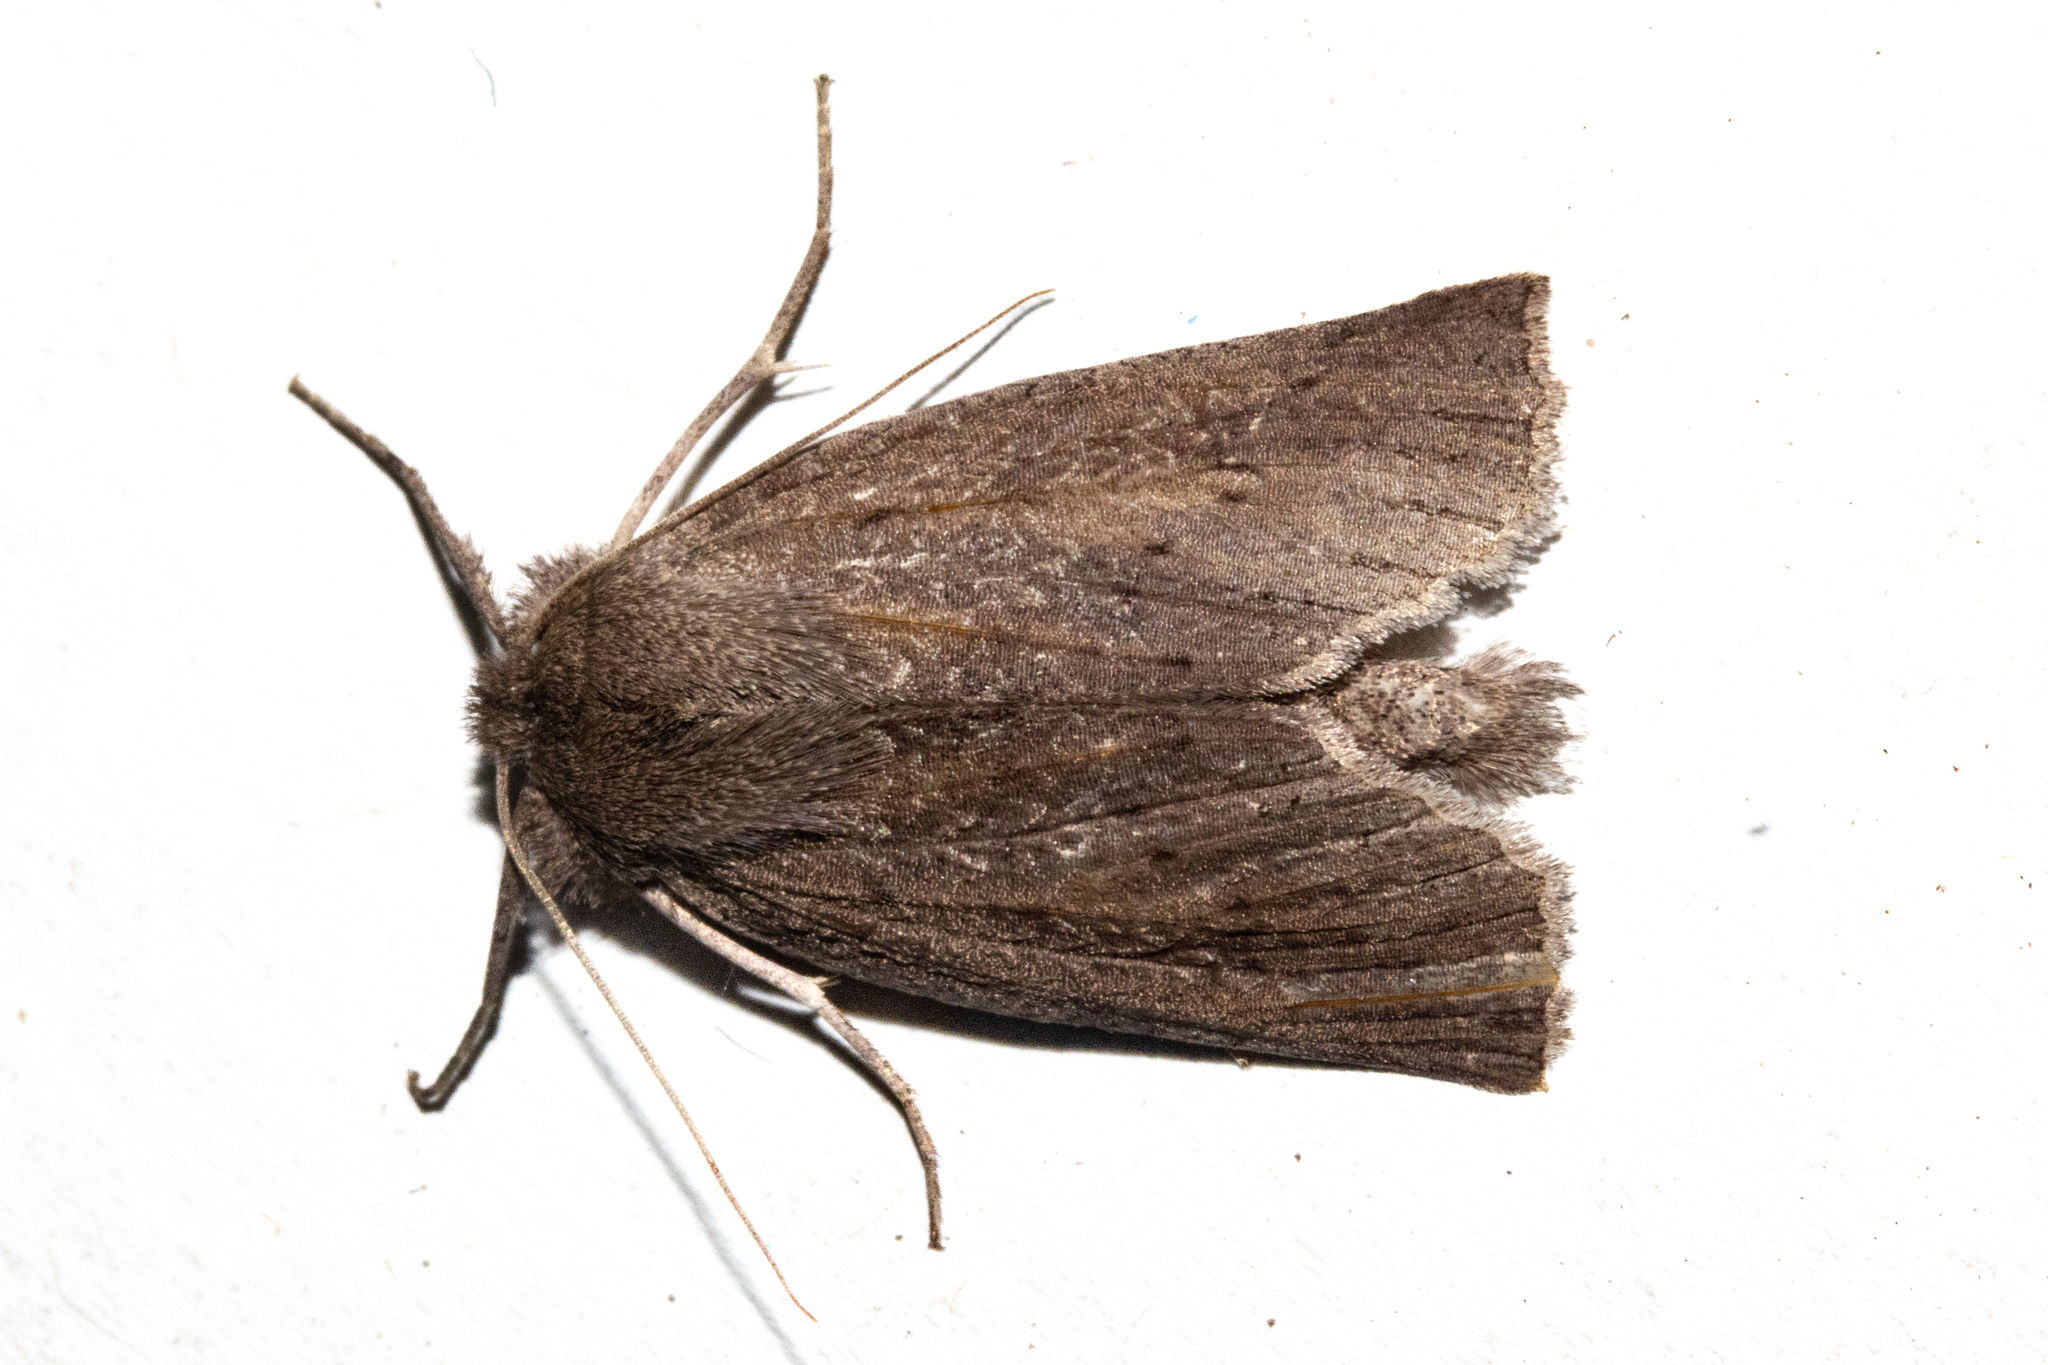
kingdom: Animalia
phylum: Arthropoda
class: Insecta
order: Lepidoptera
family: Geometridae
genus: Declana
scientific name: Declana leptomera
